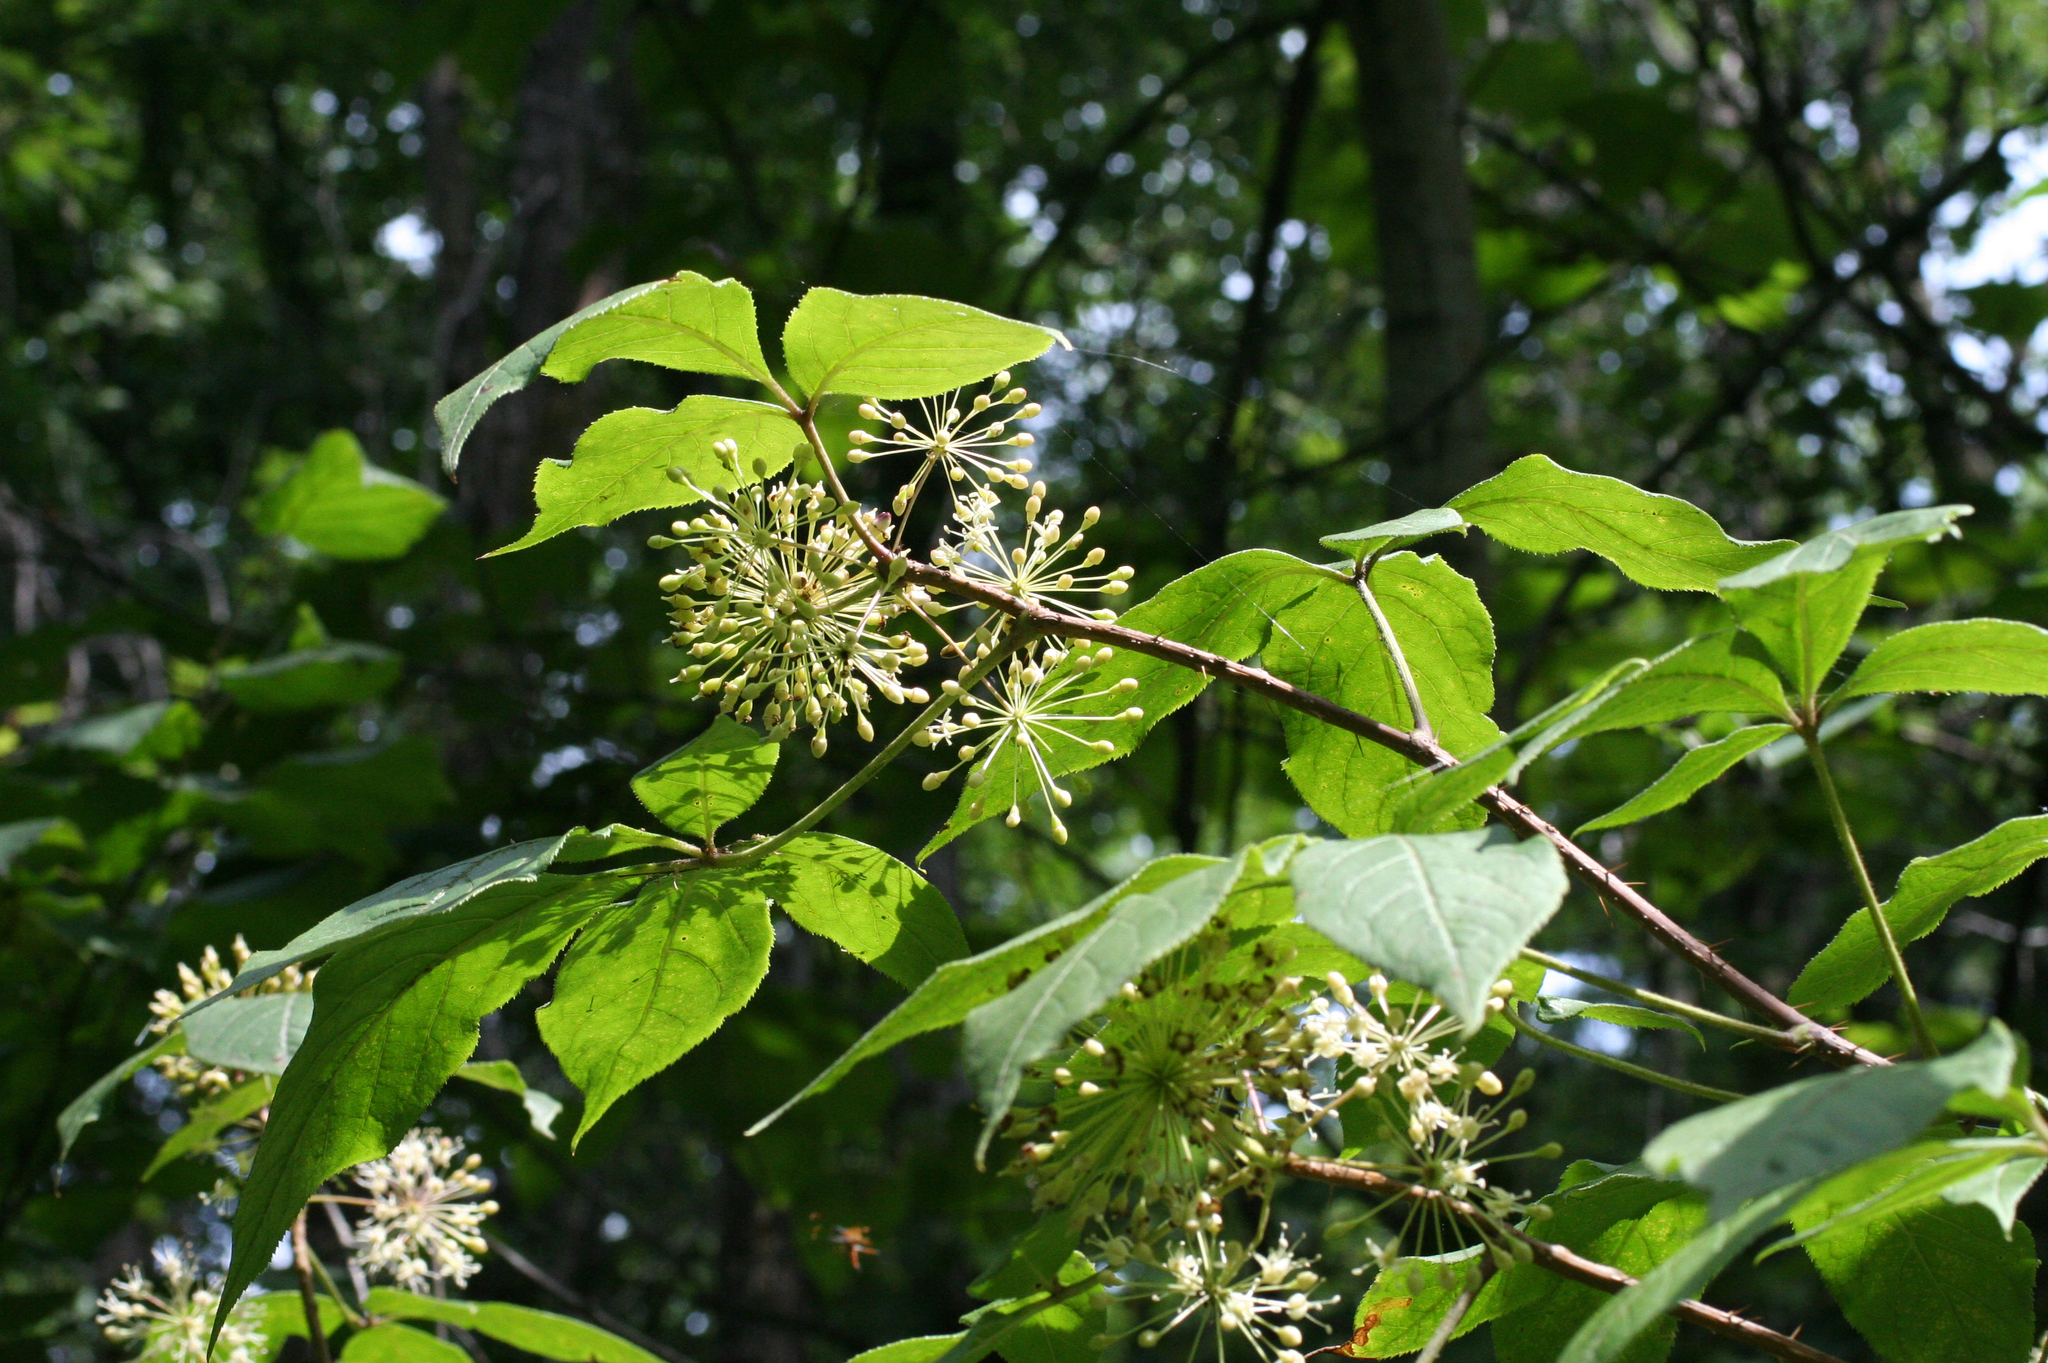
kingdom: Plantae
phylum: Tracheophyta
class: Magnoliopsida
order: Apiales
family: Araliaceae
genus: Eleutherococcus
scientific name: Eleutherococcus senticosus
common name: Siberian-ginseng
